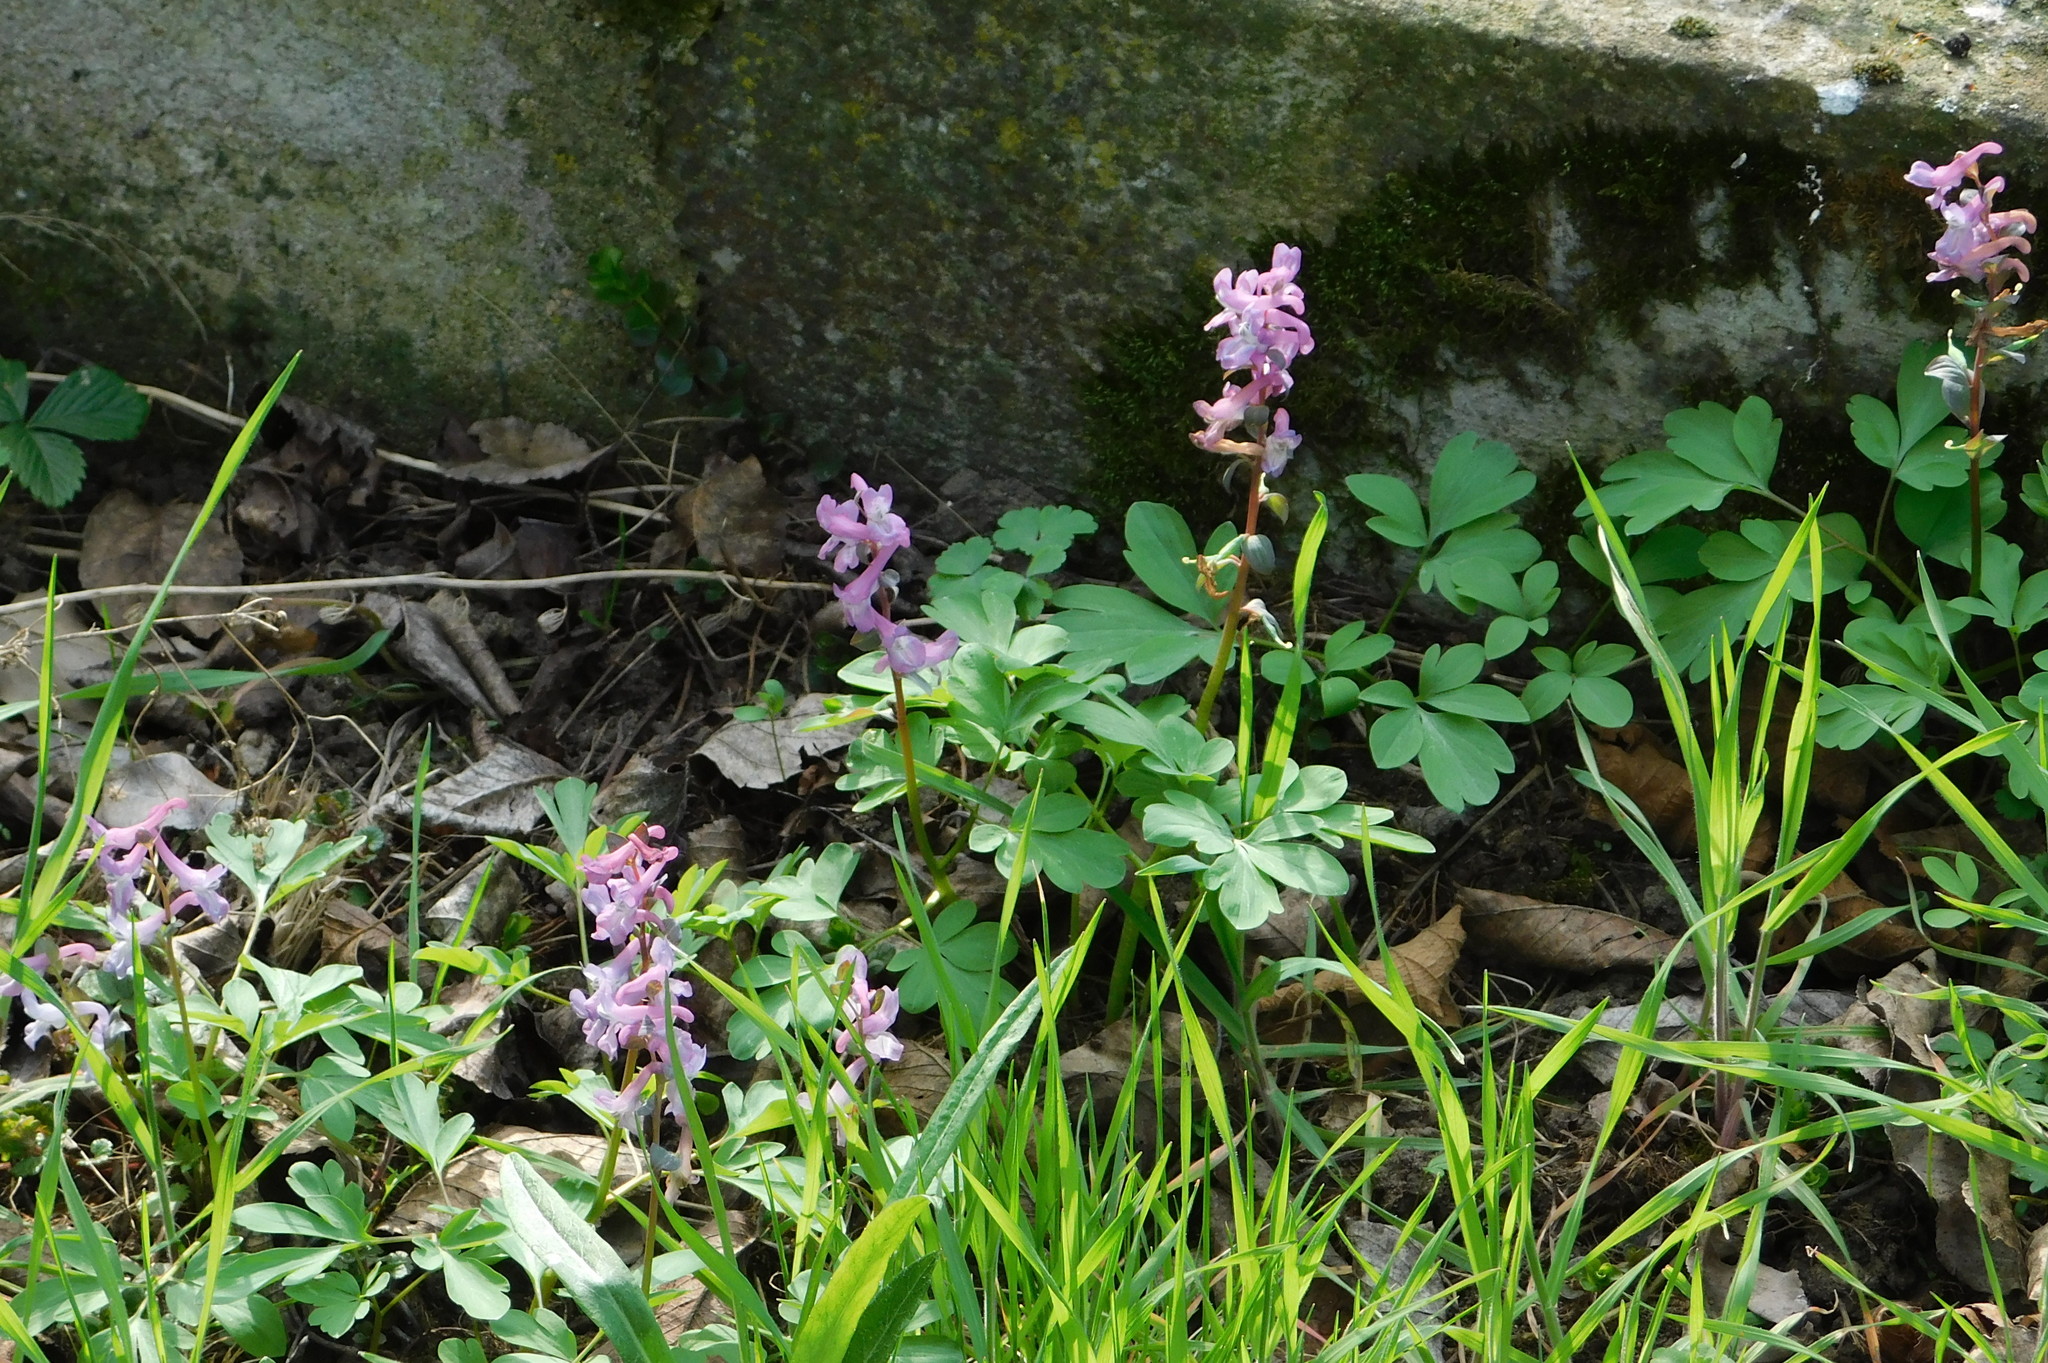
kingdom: Plantae
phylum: Tracheophyta
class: Magnoliopsida
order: Ranunculales
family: Papaveraceae
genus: Corydalis
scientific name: Corydalis cava
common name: Hollowroot
